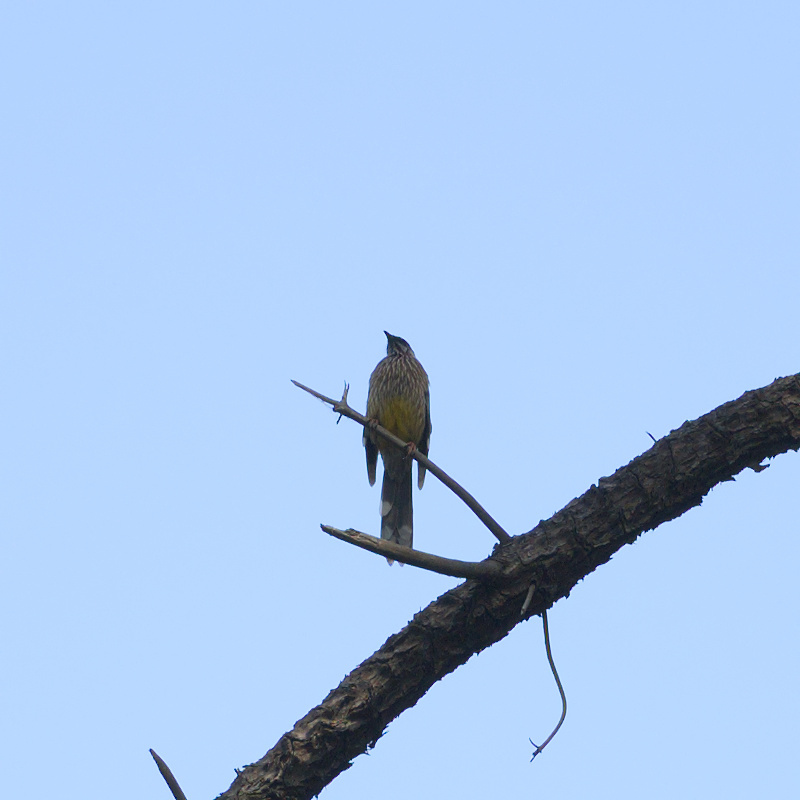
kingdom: Animalia
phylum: Chordata
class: Aves
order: Passeriformes
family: Meliphagidae
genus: Anthochaera
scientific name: Anthochaera carunculata
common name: Red wattlebird
